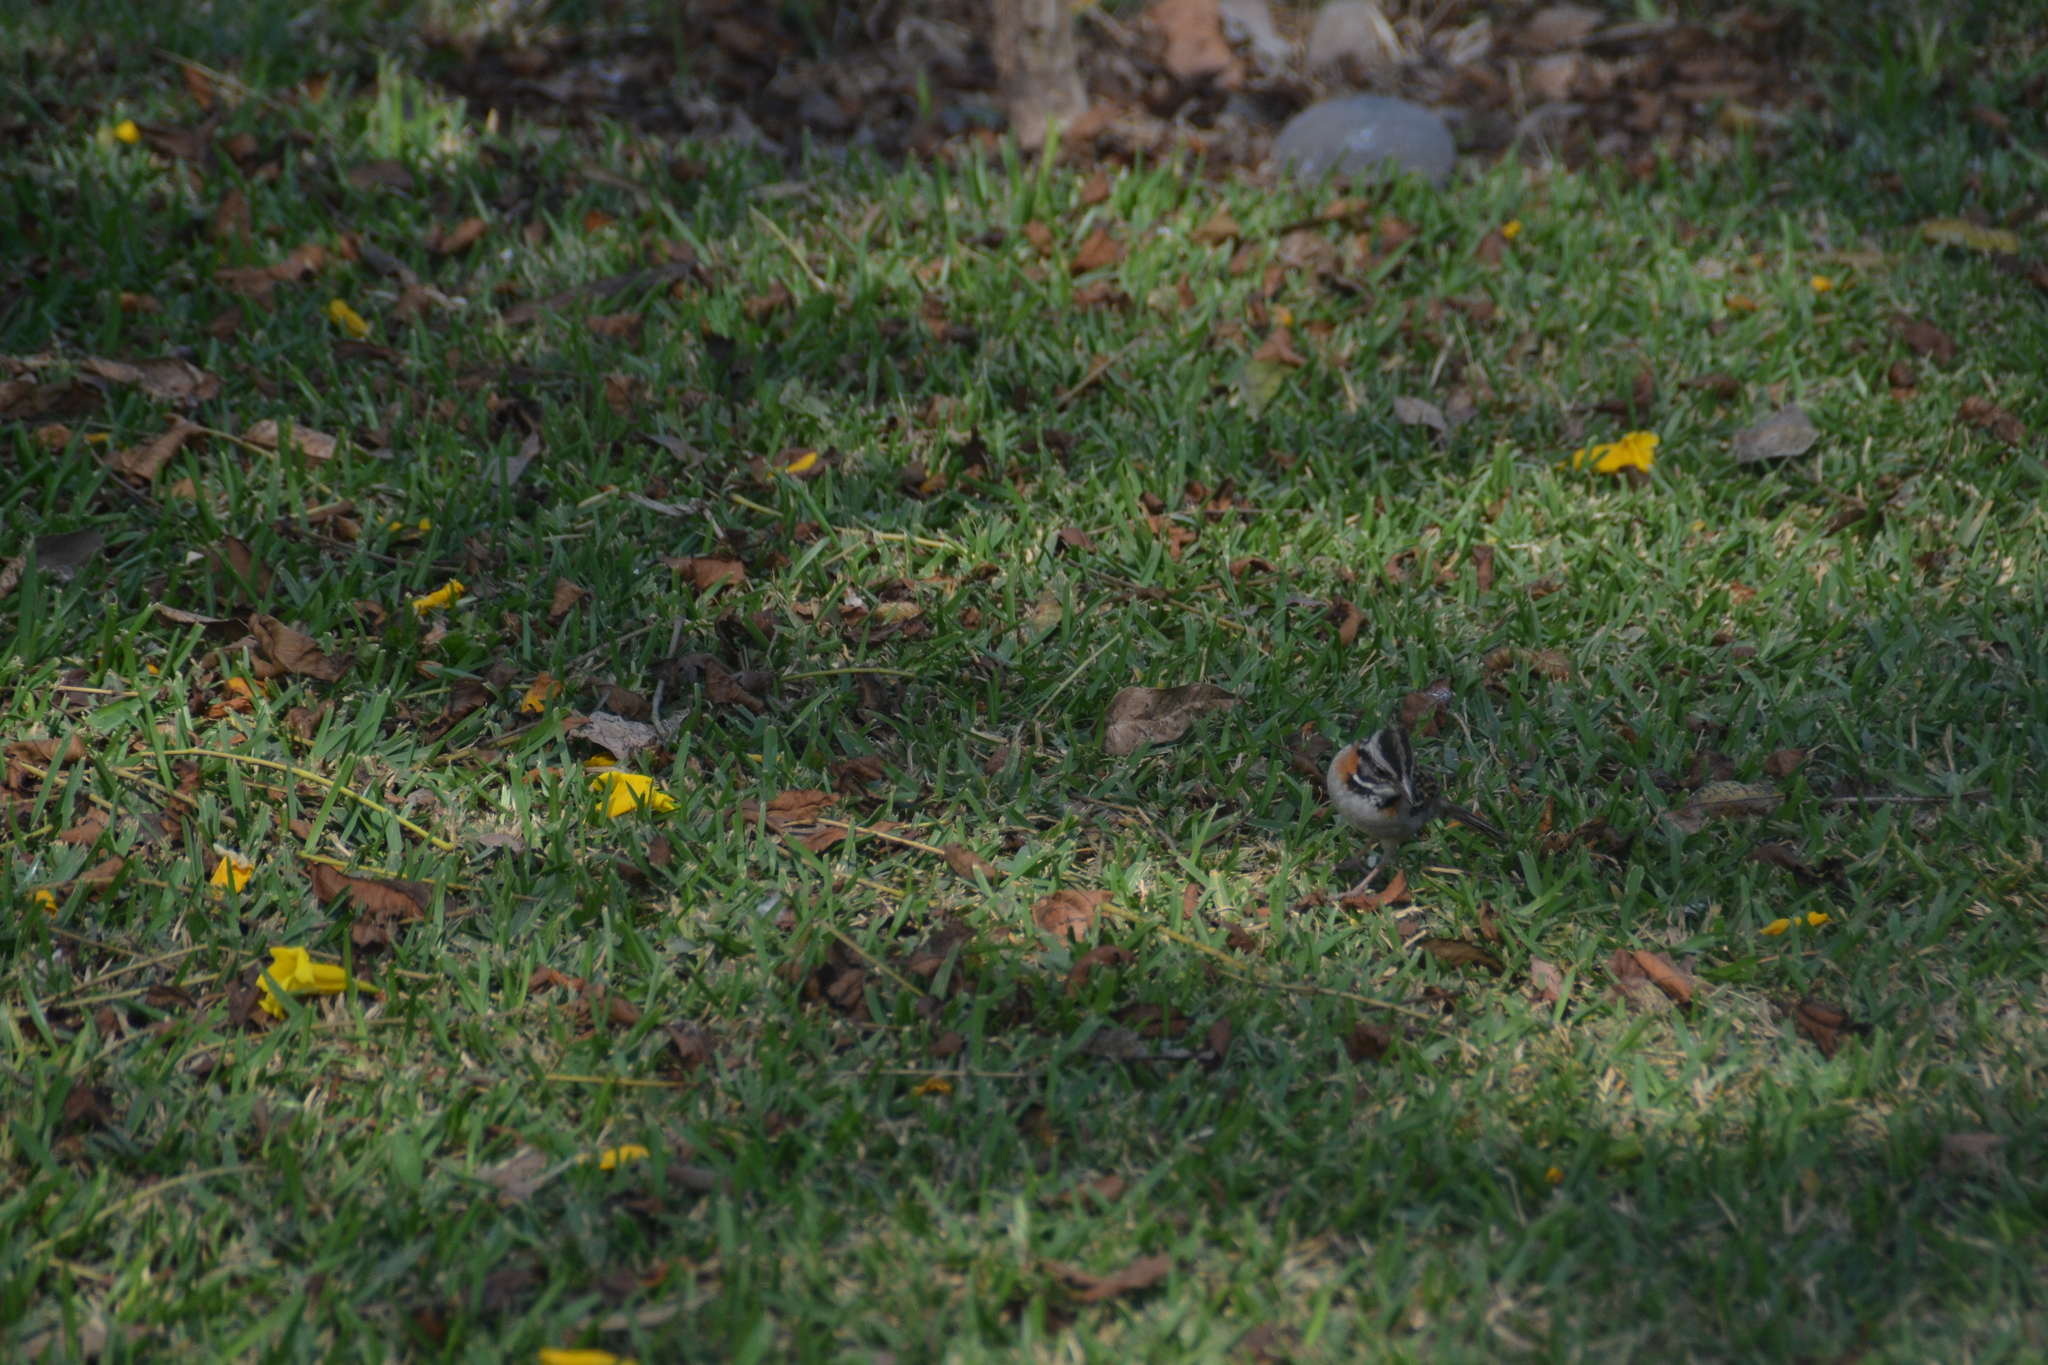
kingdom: Animalia
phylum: Chordata
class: Aves
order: Passeriformes
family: Passerellidae
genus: Zonotrichia
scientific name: Zonotrichia capensis
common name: Rufous-collared sparrow
